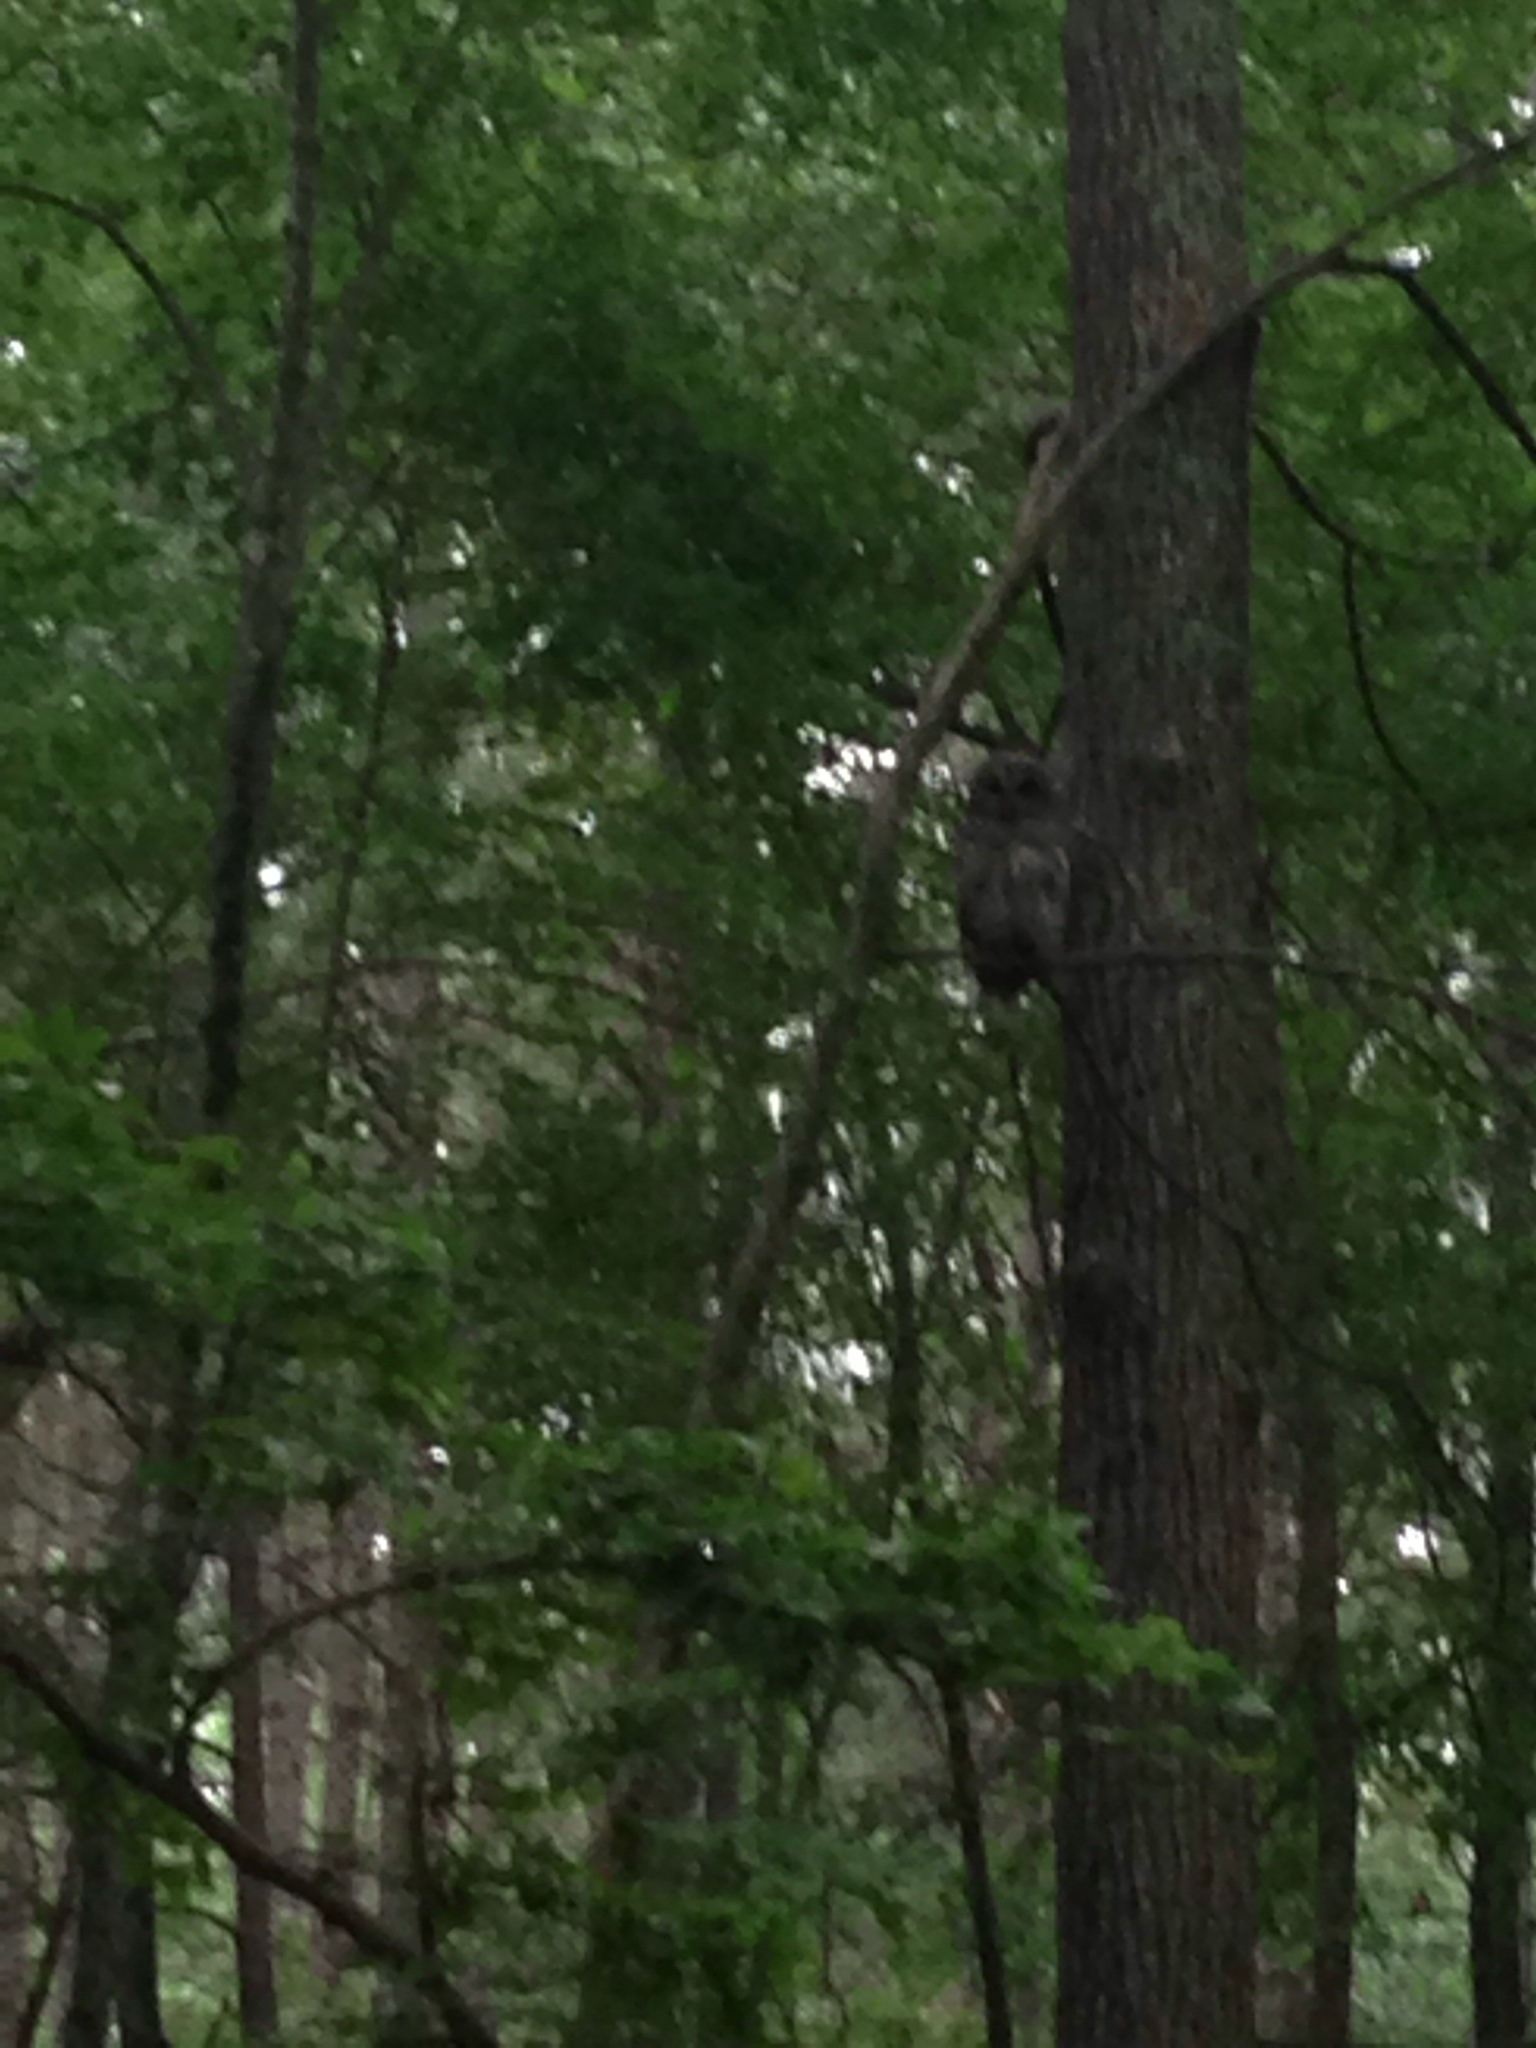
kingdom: Animalia
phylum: Chordata
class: Aves
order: Strigiformes
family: Strigidae
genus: Strix
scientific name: Strix varia
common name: Barred owl
